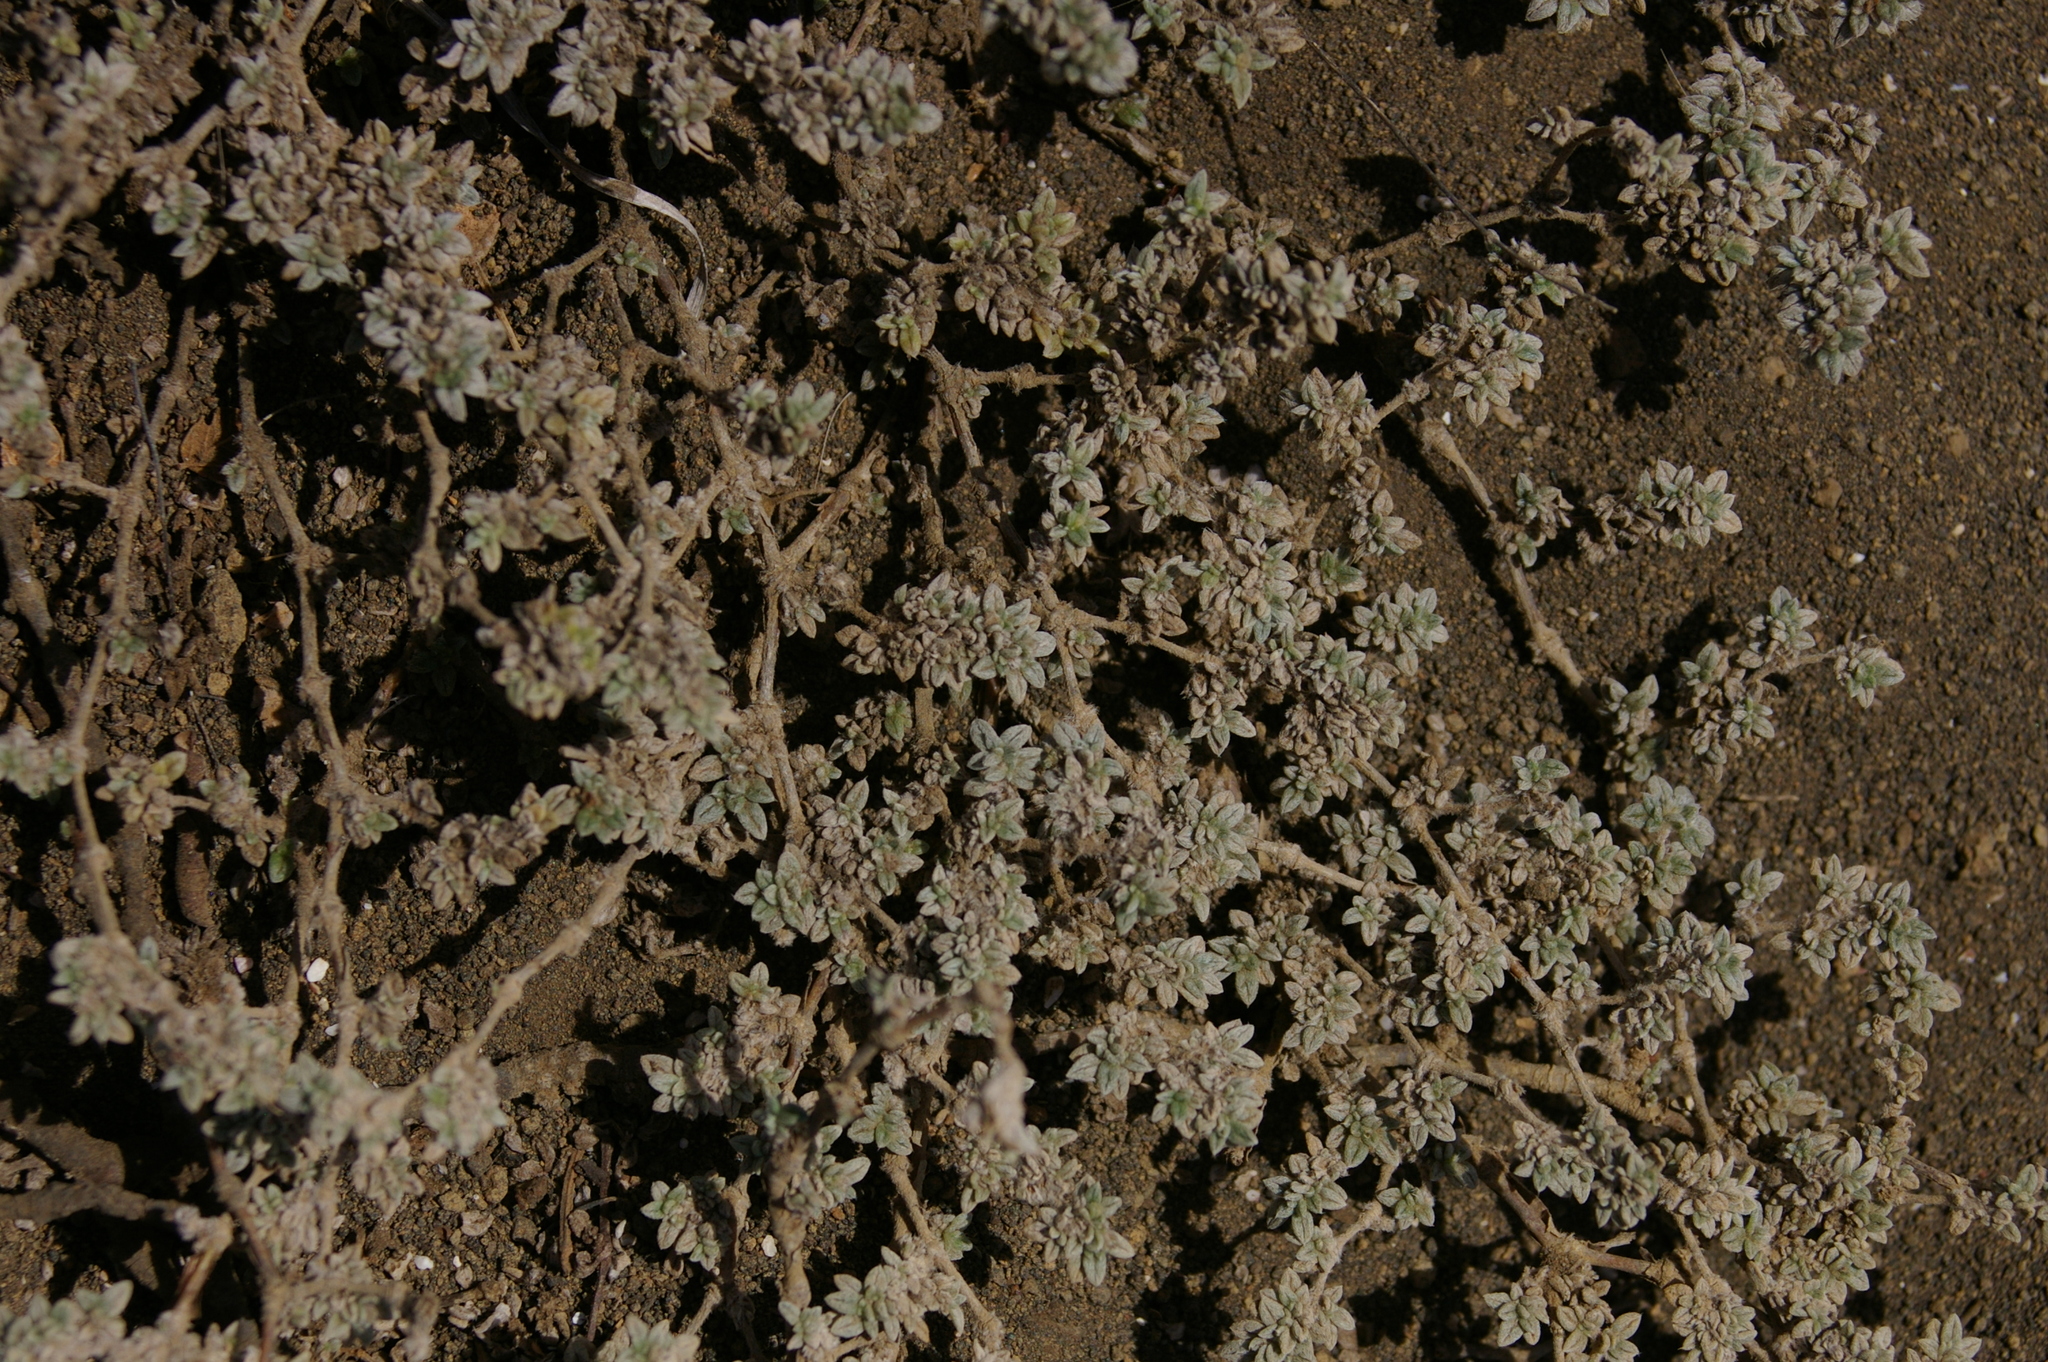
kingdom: Plantae
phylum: Tracheophyta
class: Magnoliopsida
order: Boraginales
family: Ehretiaceae
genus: Tiquilia
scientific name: Tiquilia galapagoa
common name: Gray matplant
